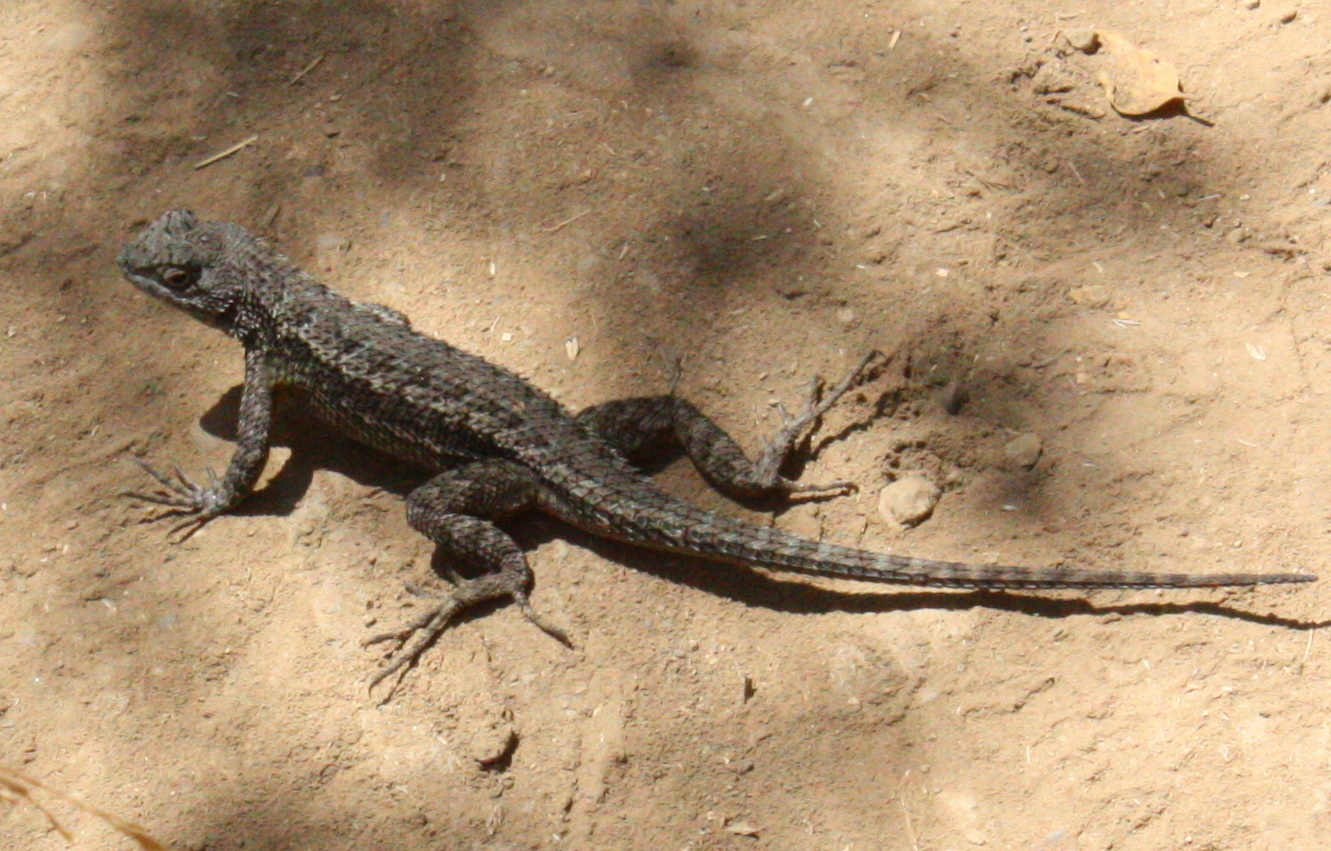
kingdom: Animalia
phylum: Chordata
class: Squamata
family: Phrynosomatidae
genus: Sceloporus
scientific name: Sceloporus occidentalis
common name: Western fence lizard
